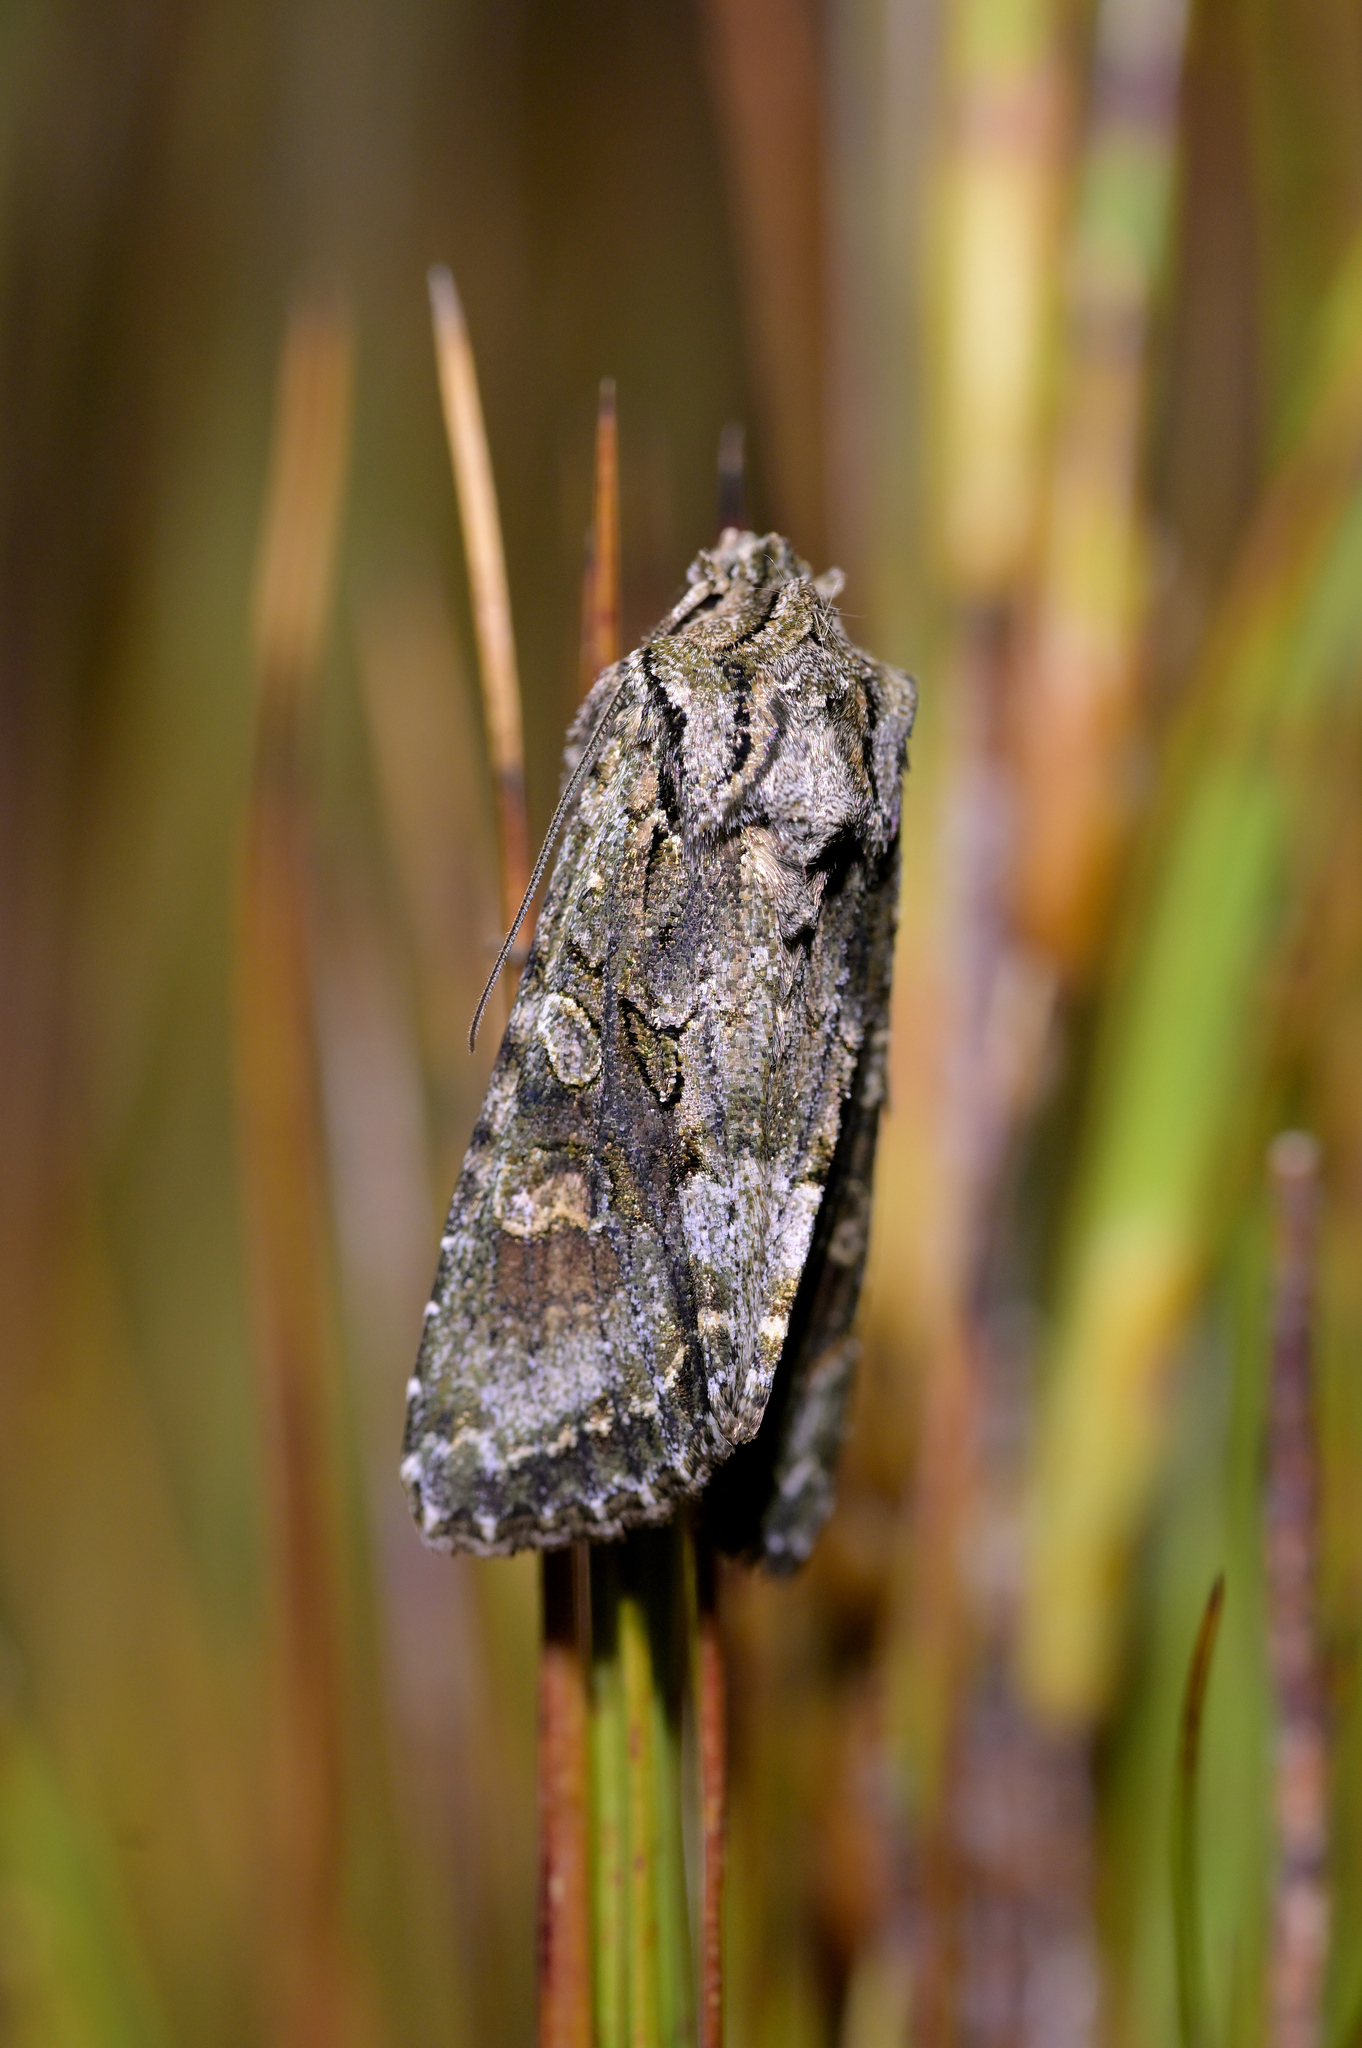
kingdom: Animalia
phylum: Arthropoda
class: Insecta
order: Lepidoptera
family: Noctuidae
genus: Ichneutica
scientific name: Ichneutica mutans
